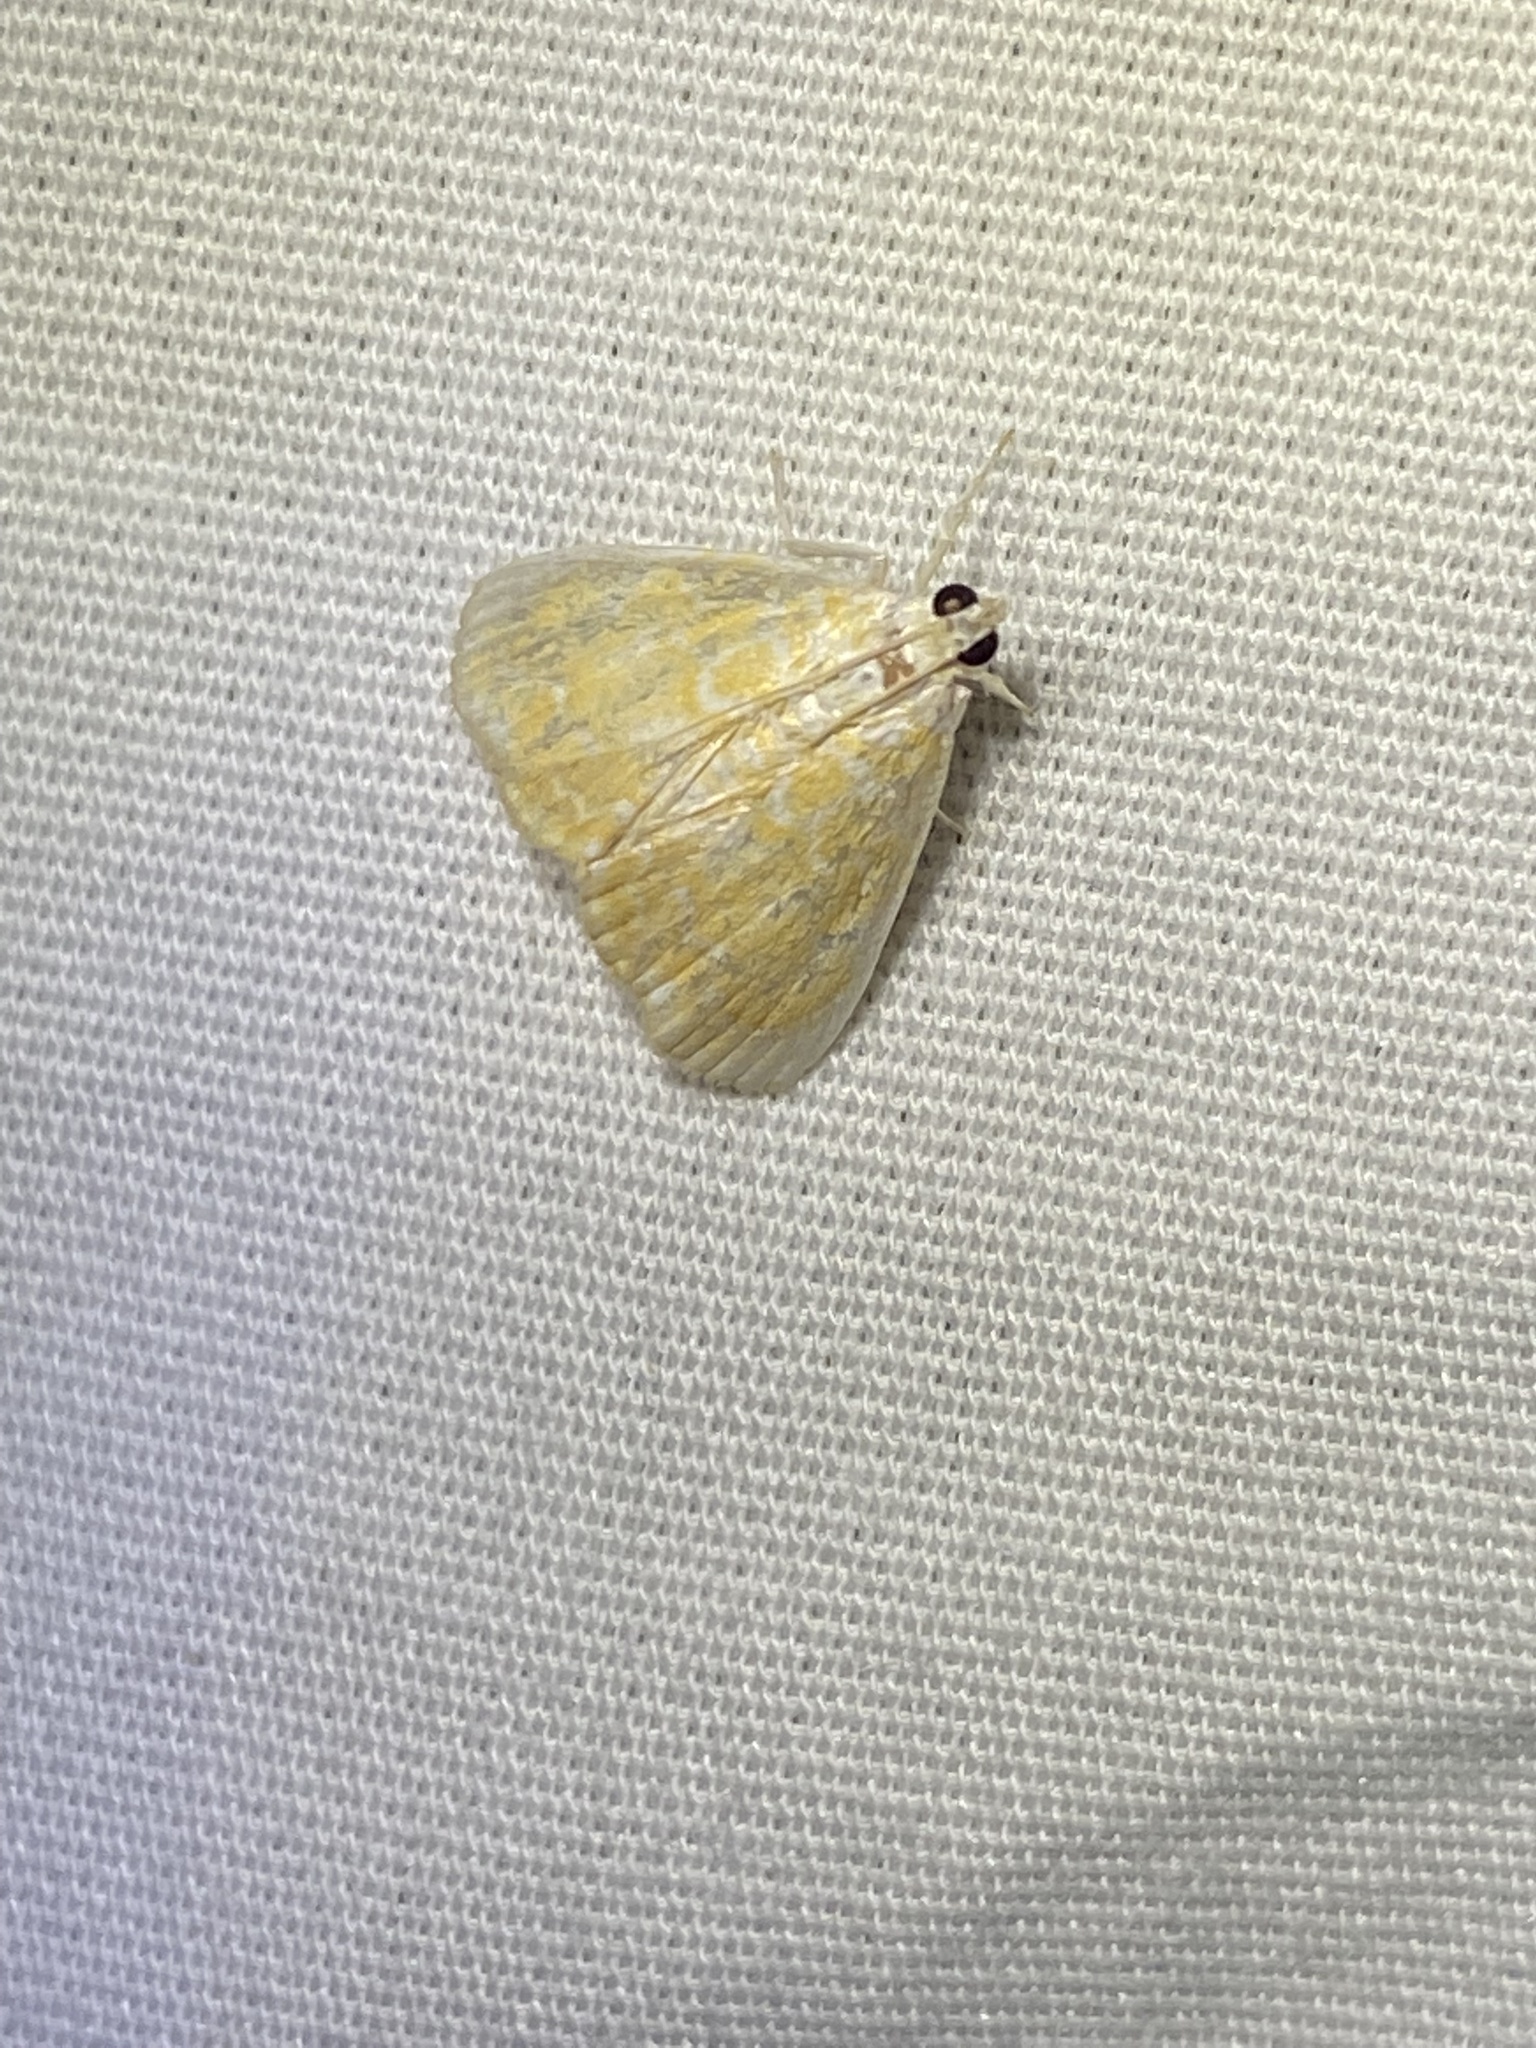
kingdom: Animalia
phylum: Arthropoda
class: Insecta
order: Lepidoptera
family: Crambidae
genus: Glaphyria
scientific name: Glaphyria glaphyralis
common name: Common glaphyria moth
